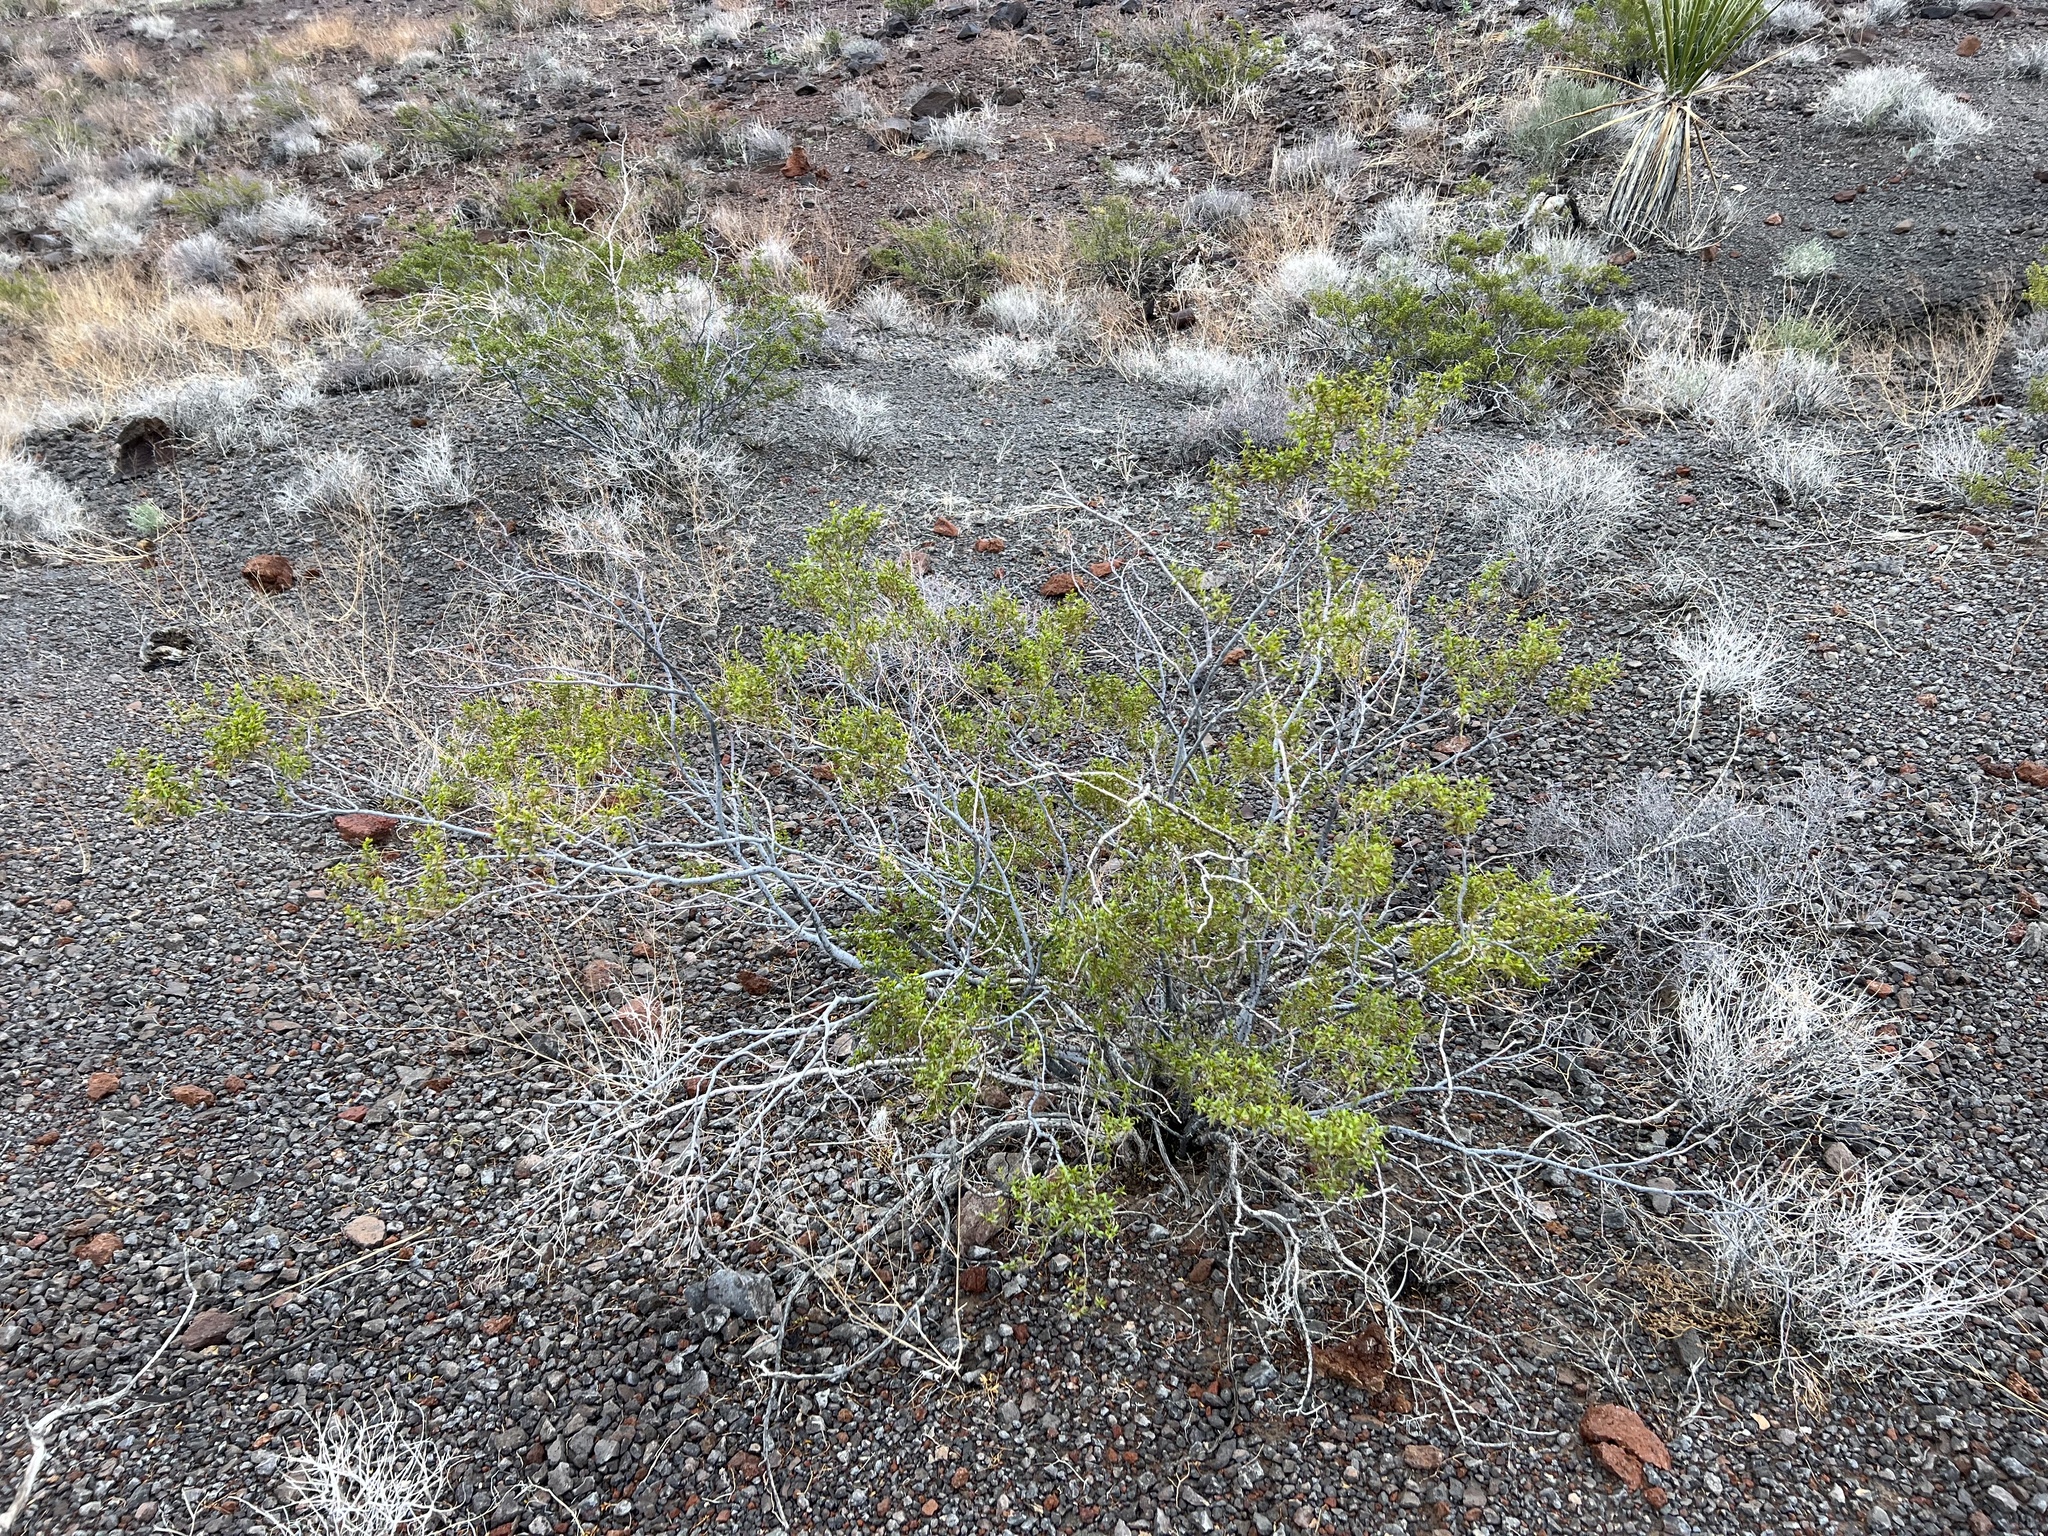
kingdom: Plantae
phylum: Tracheophyta
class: Magnoliopsida
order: Zygophyllales
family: Zygophyllaceae
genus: Larrea
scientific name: Larrea tridentata
